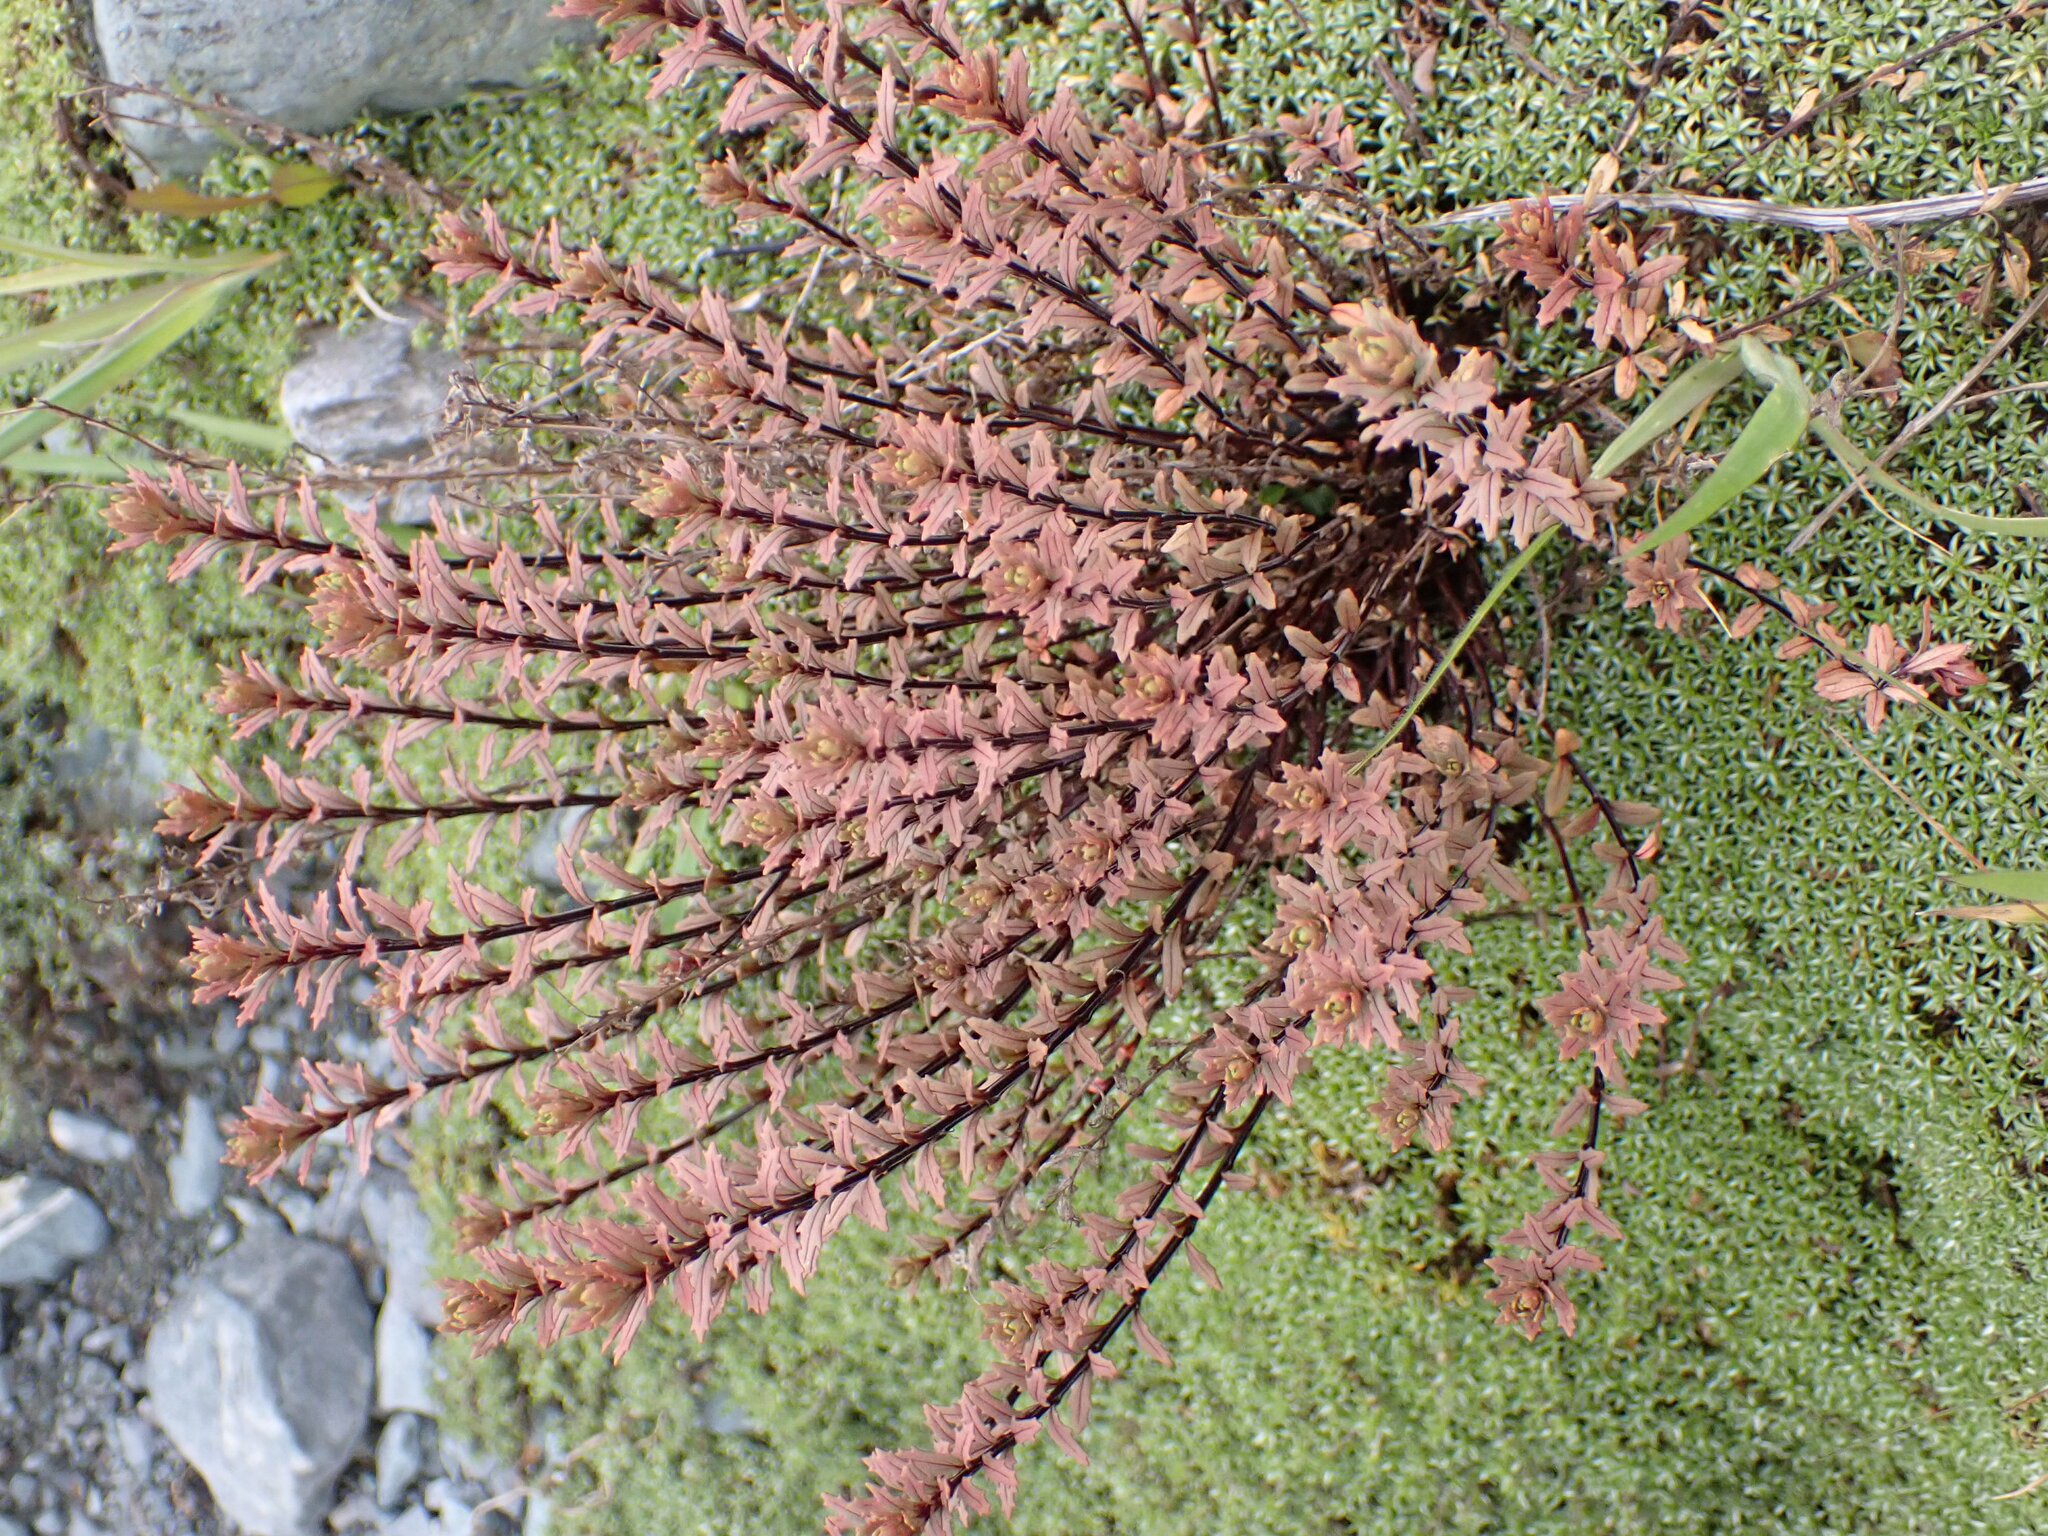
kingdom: Plantae
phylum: Tracheophyta
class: Magnoliopsida
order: Myrtales
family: Onagraceae
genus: Epilobium
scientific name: Epilobium melanocaulon
